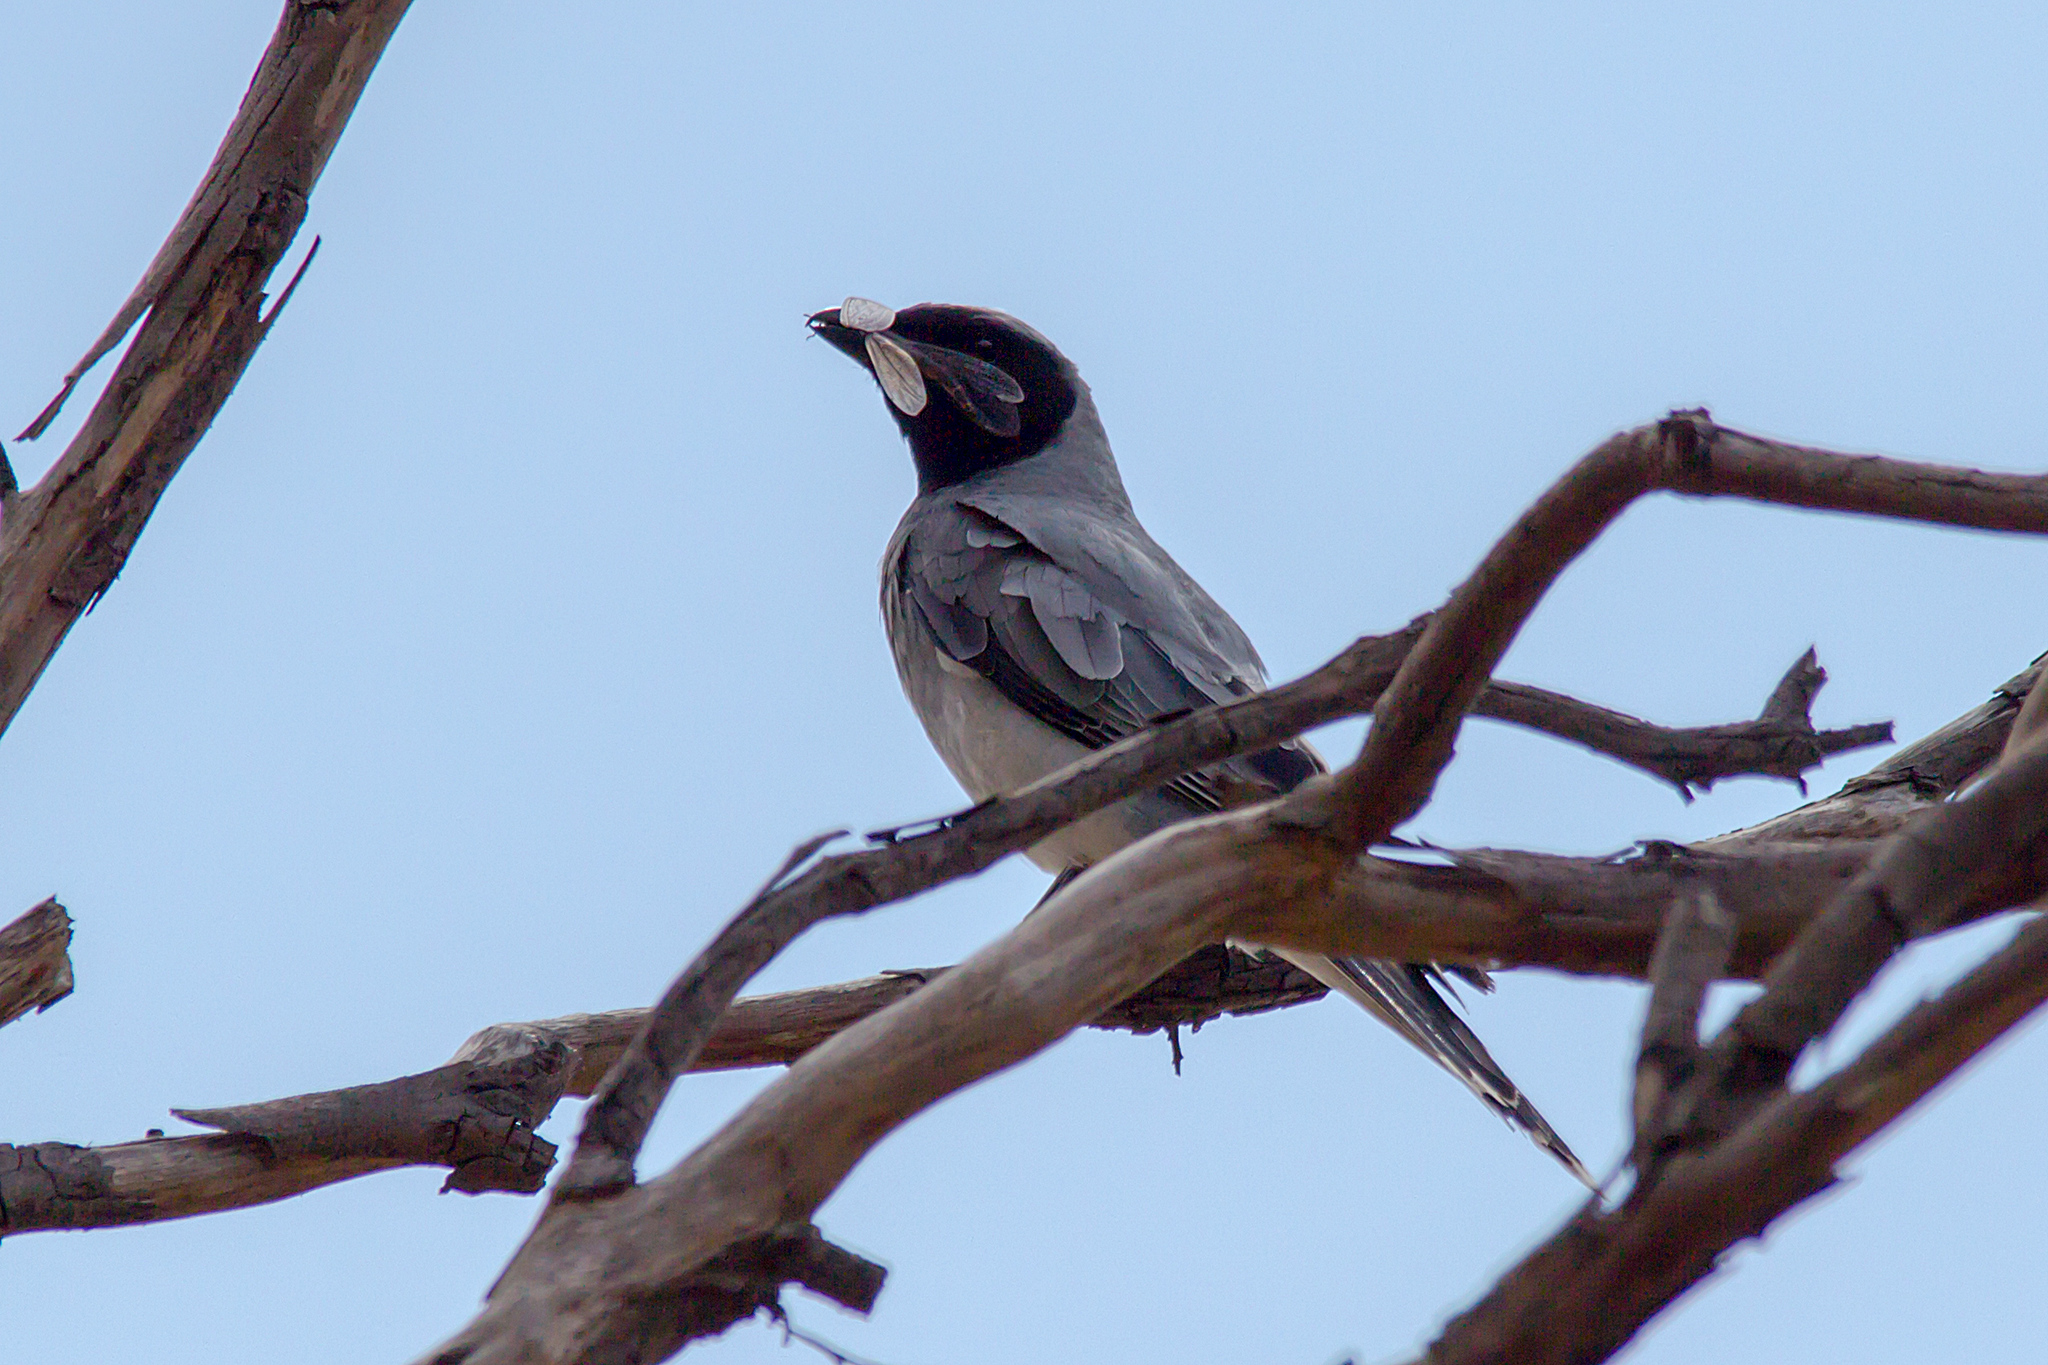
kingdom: Animalia
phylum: Chordata
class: Aves
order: Passeriformes
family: Campephagidae
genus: Coracina
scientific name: Coracina novaehollandiae
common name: Black-faced cuckooshrike
